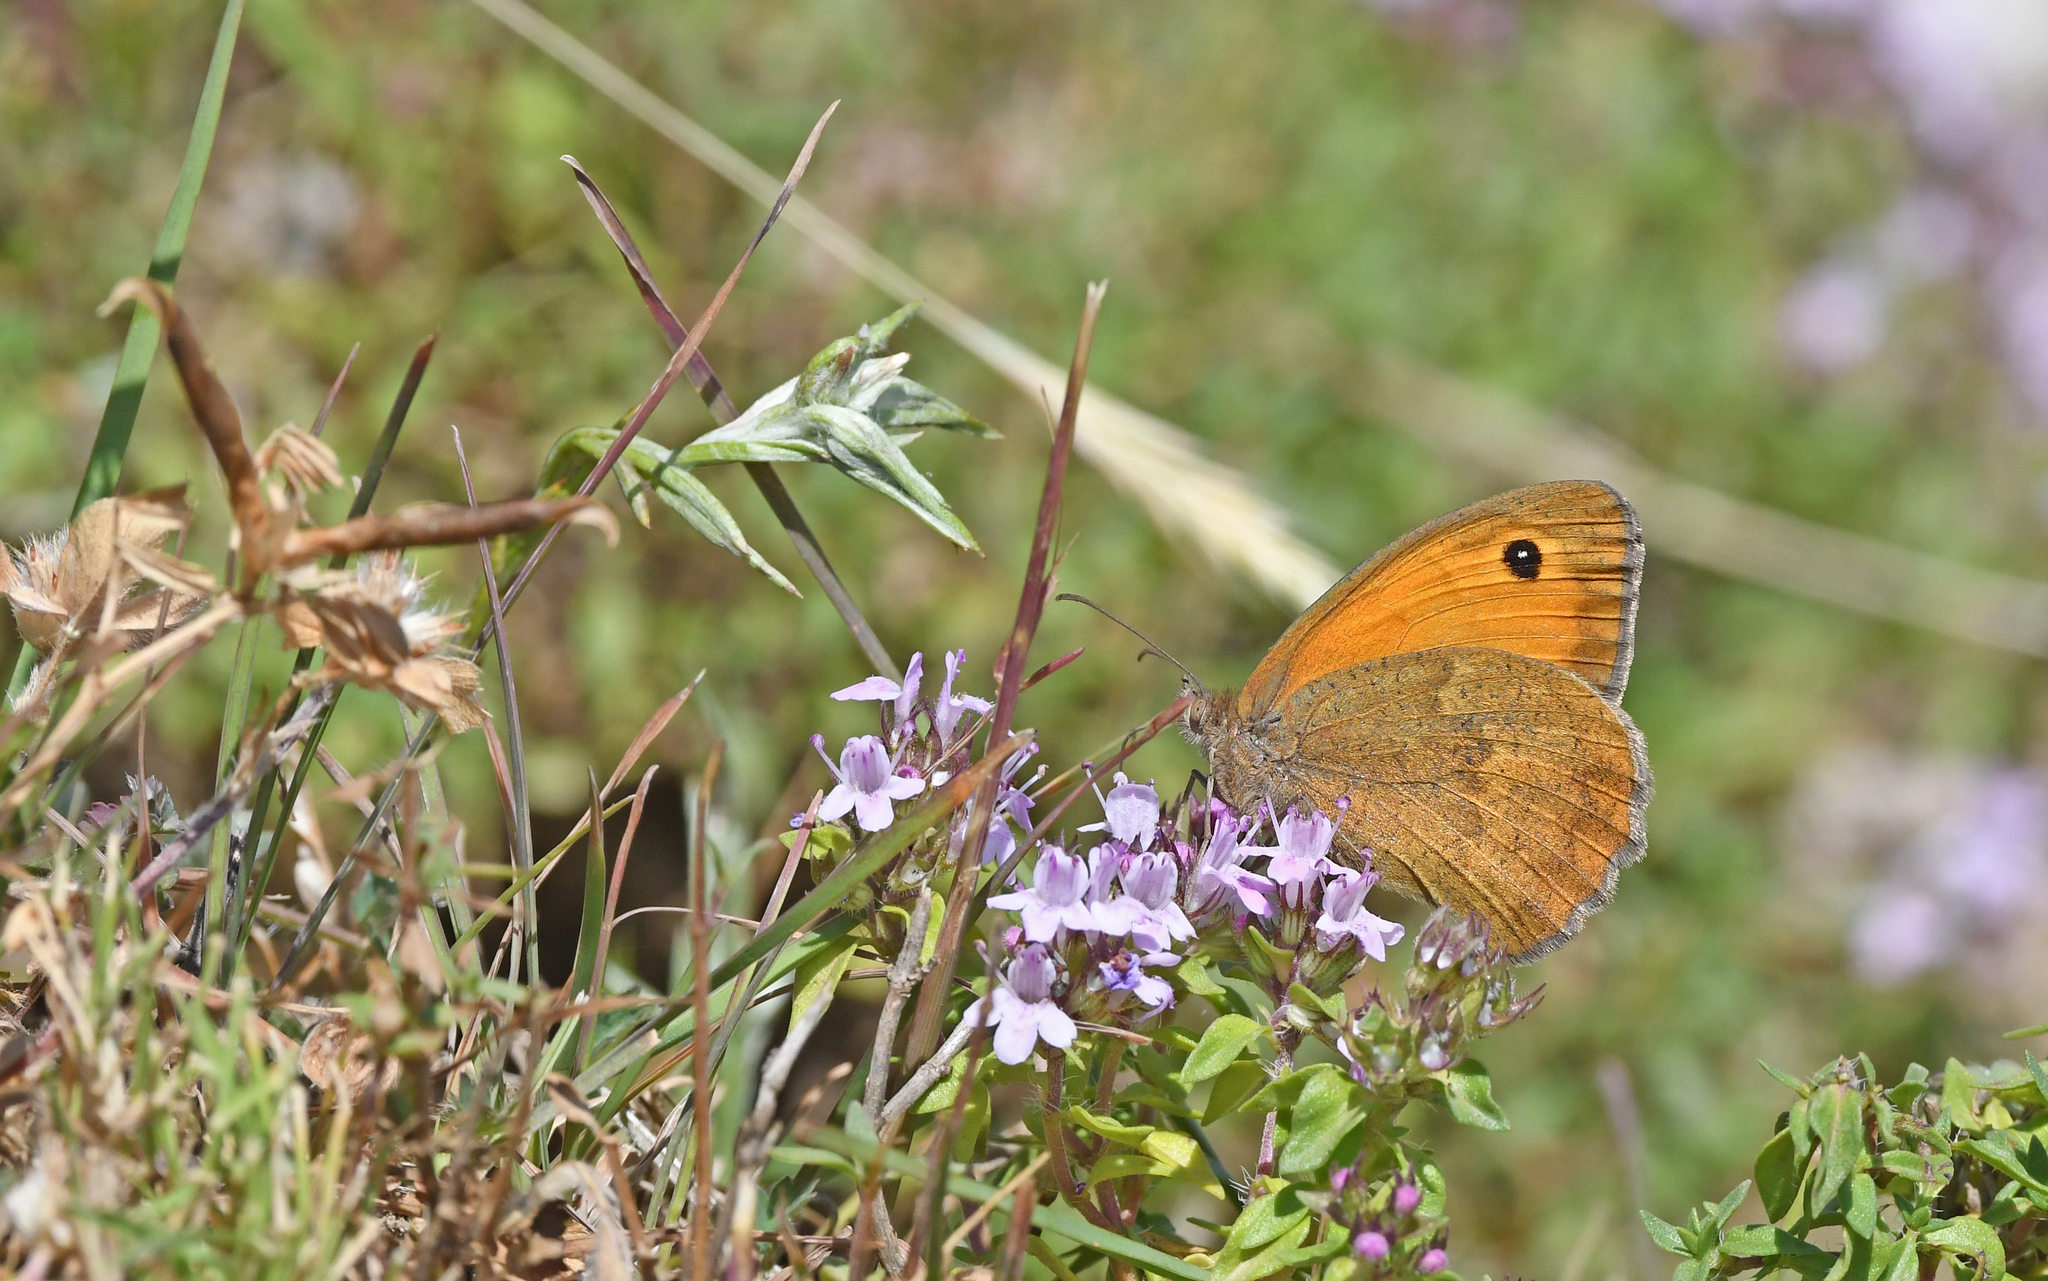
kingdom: Animalia
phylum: Arthropoda
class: Insecta
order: Lepidoptera
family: Nymphalidae
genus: Maniola
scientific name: Maniola nurag
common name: Sardinian meadow brown
